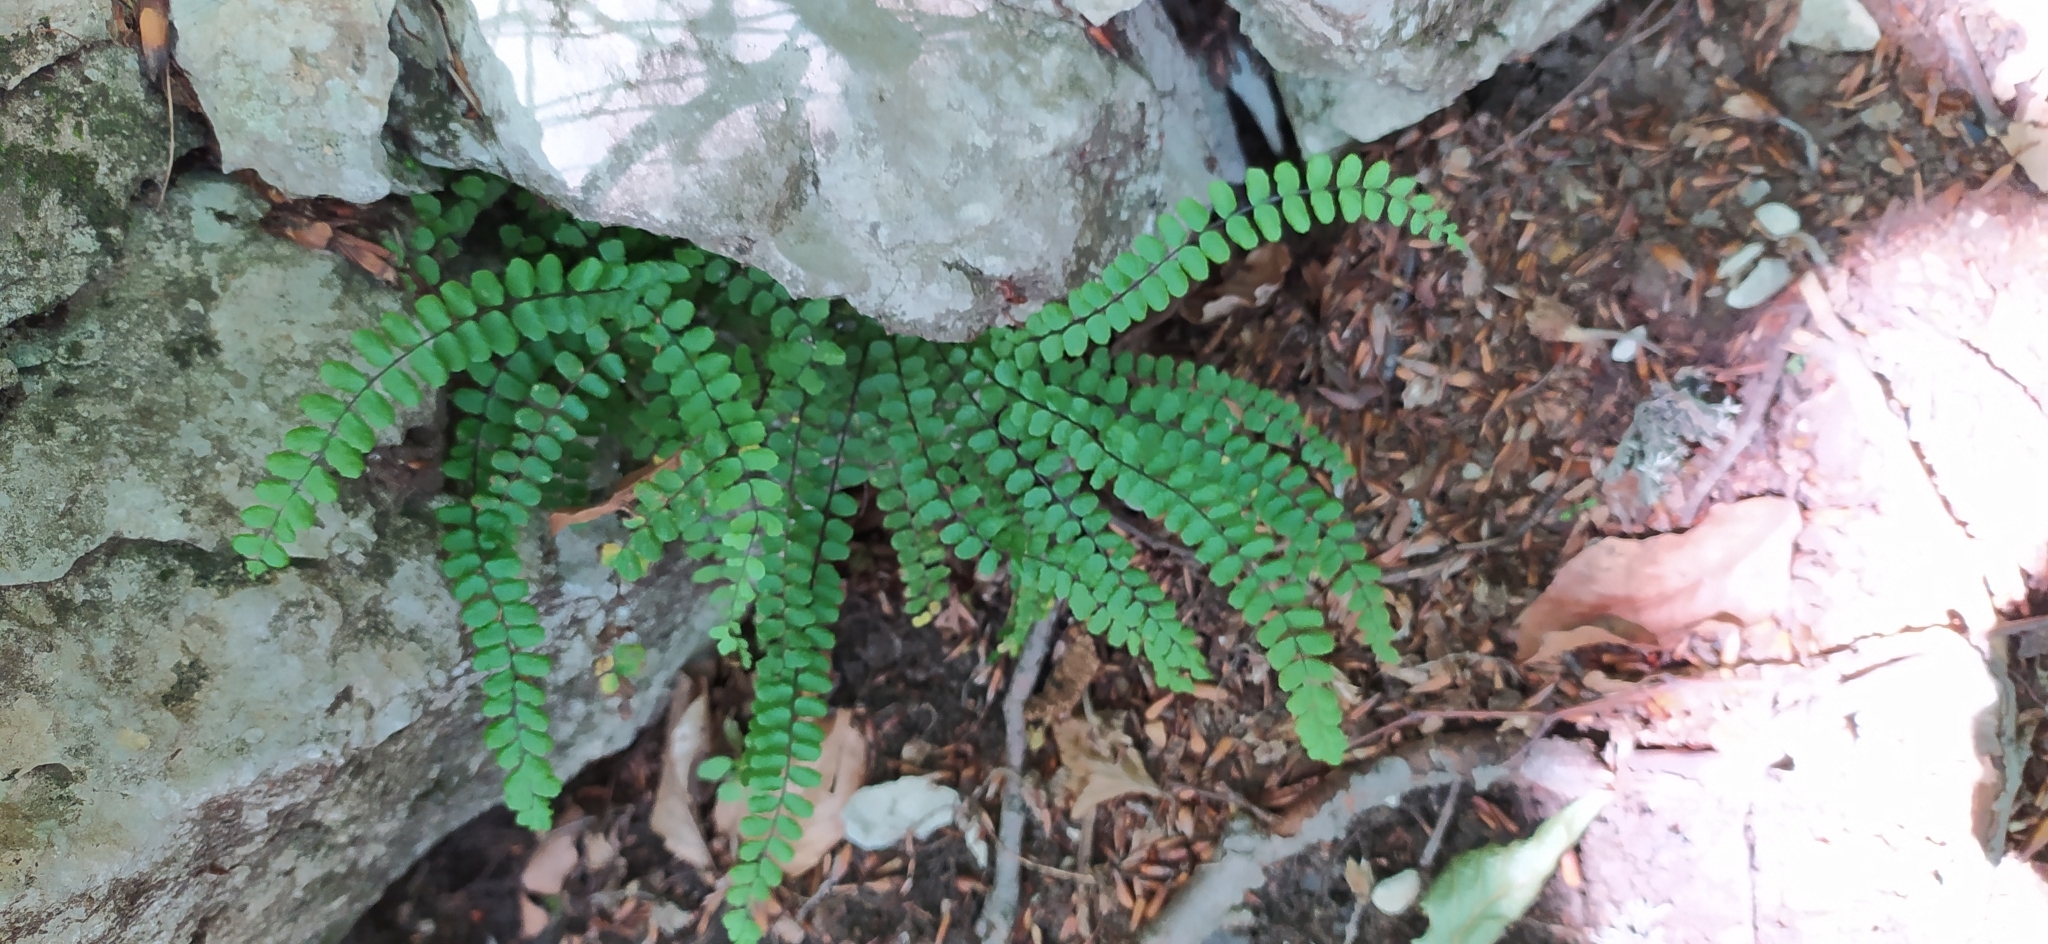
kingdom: Plantae
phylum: Tracheophyta
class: Polypodiopsida
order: Polypodiales
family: Aspleniaceae
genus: Asplenium
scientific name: Asplenium trichomanes
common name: Maidenhair spleenwort
